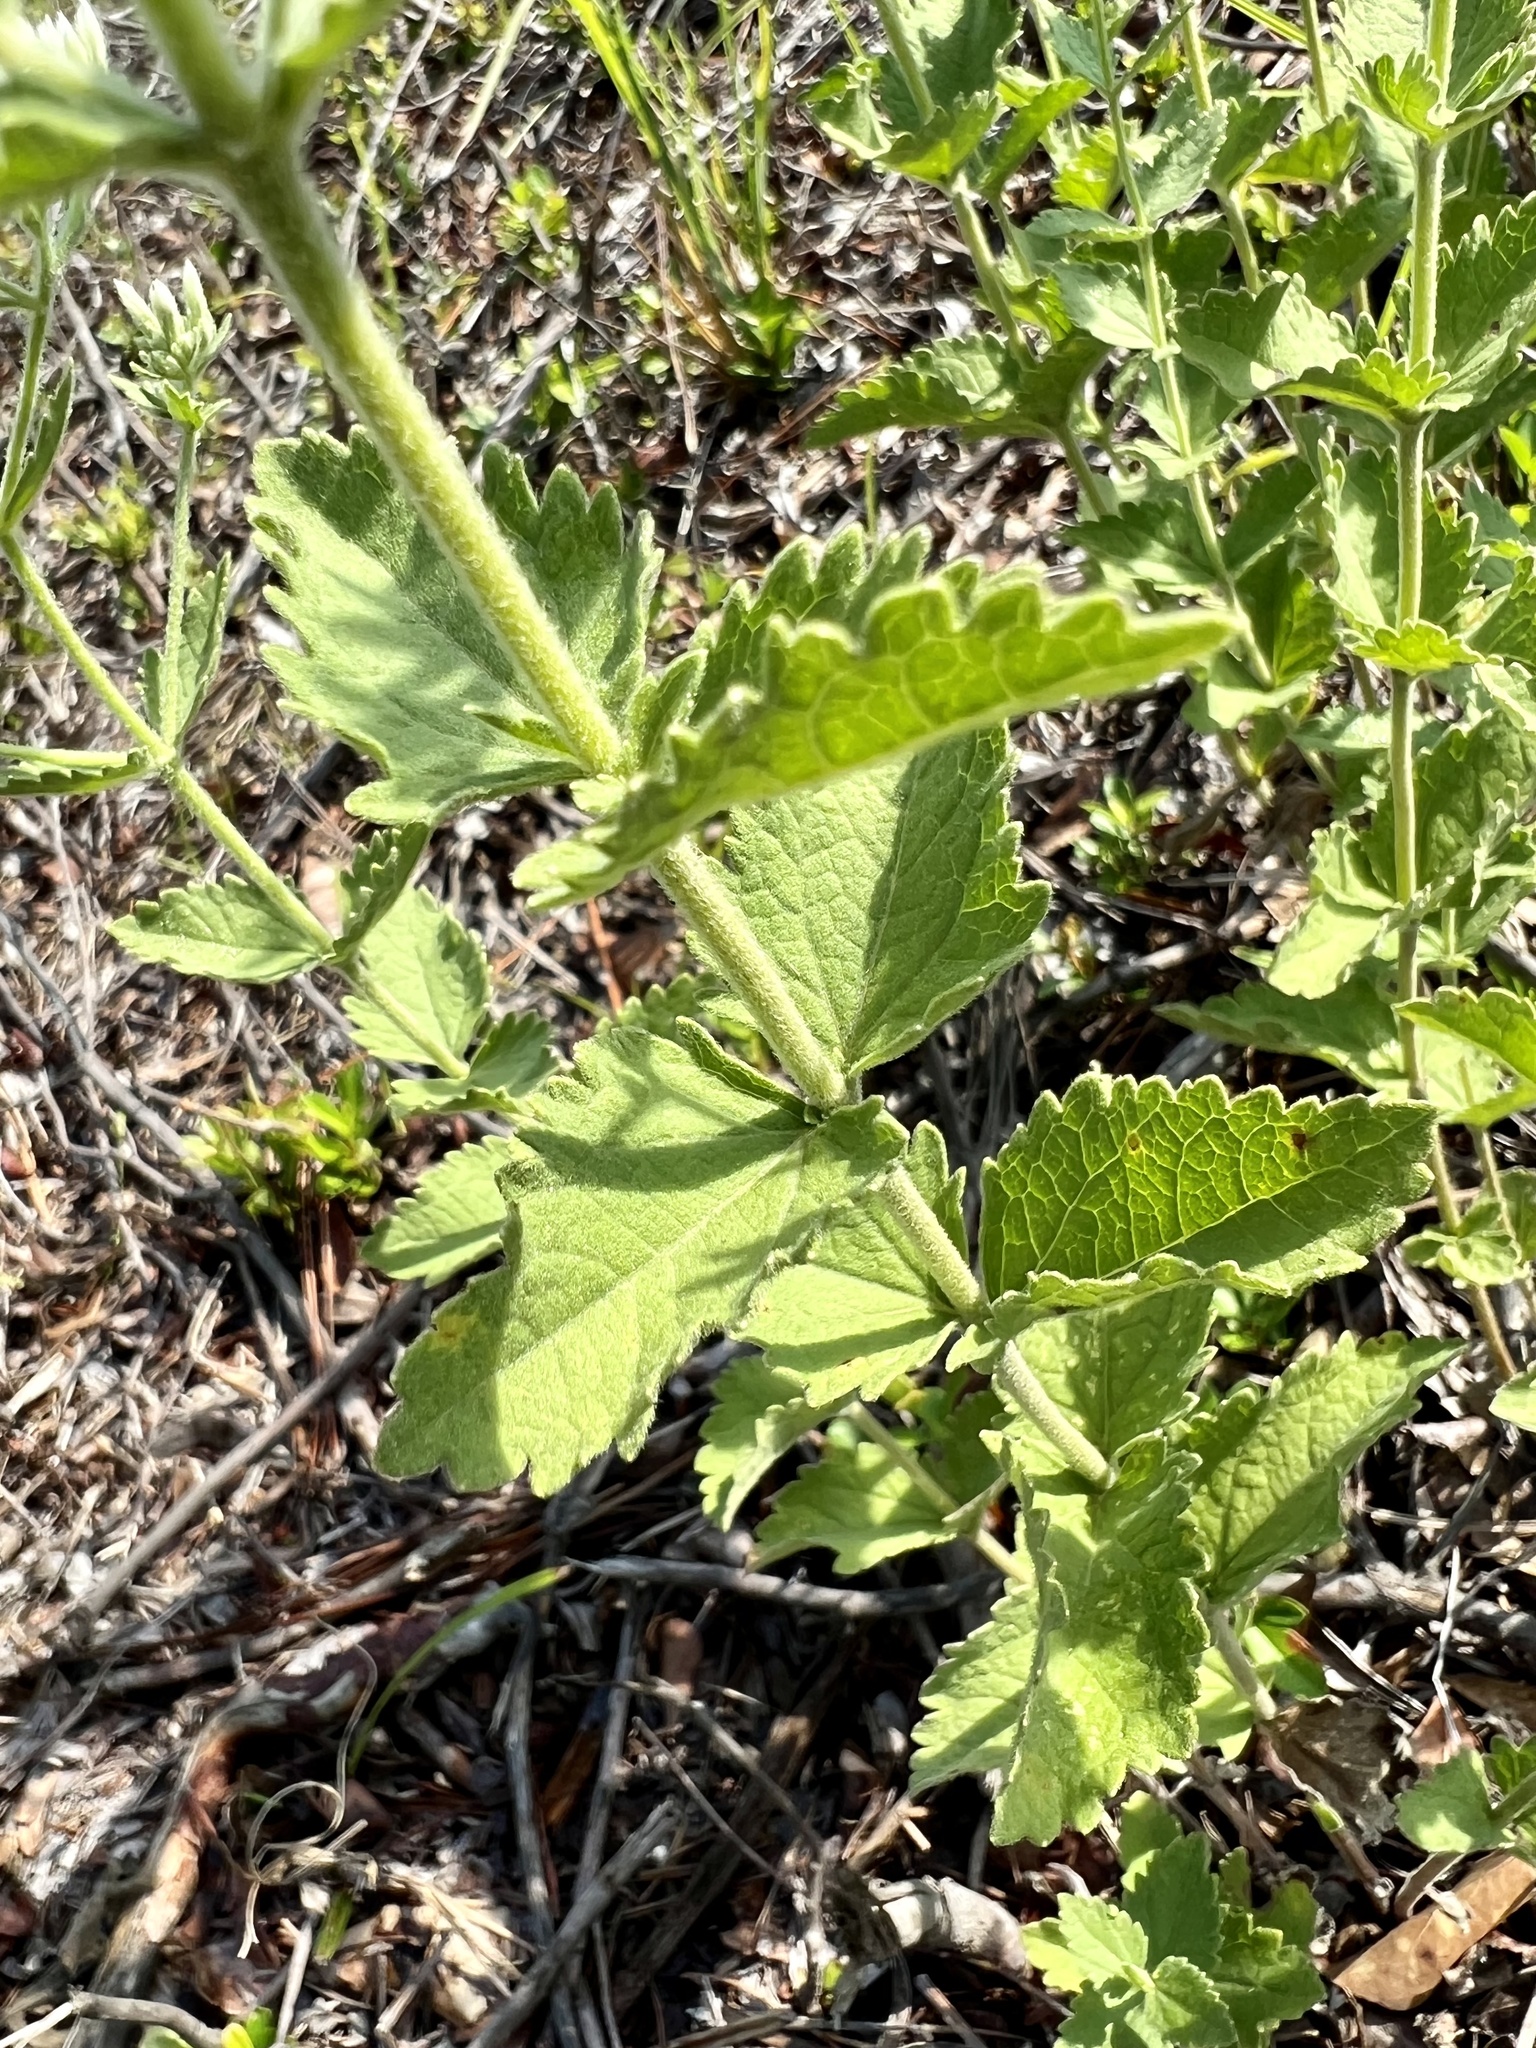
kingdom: Plantae
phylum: Tracheophyta
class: Magnoliopsida
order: Asterales
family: Asteraceae
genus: Eupatorium
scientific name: Eupatorium rotundifolium
